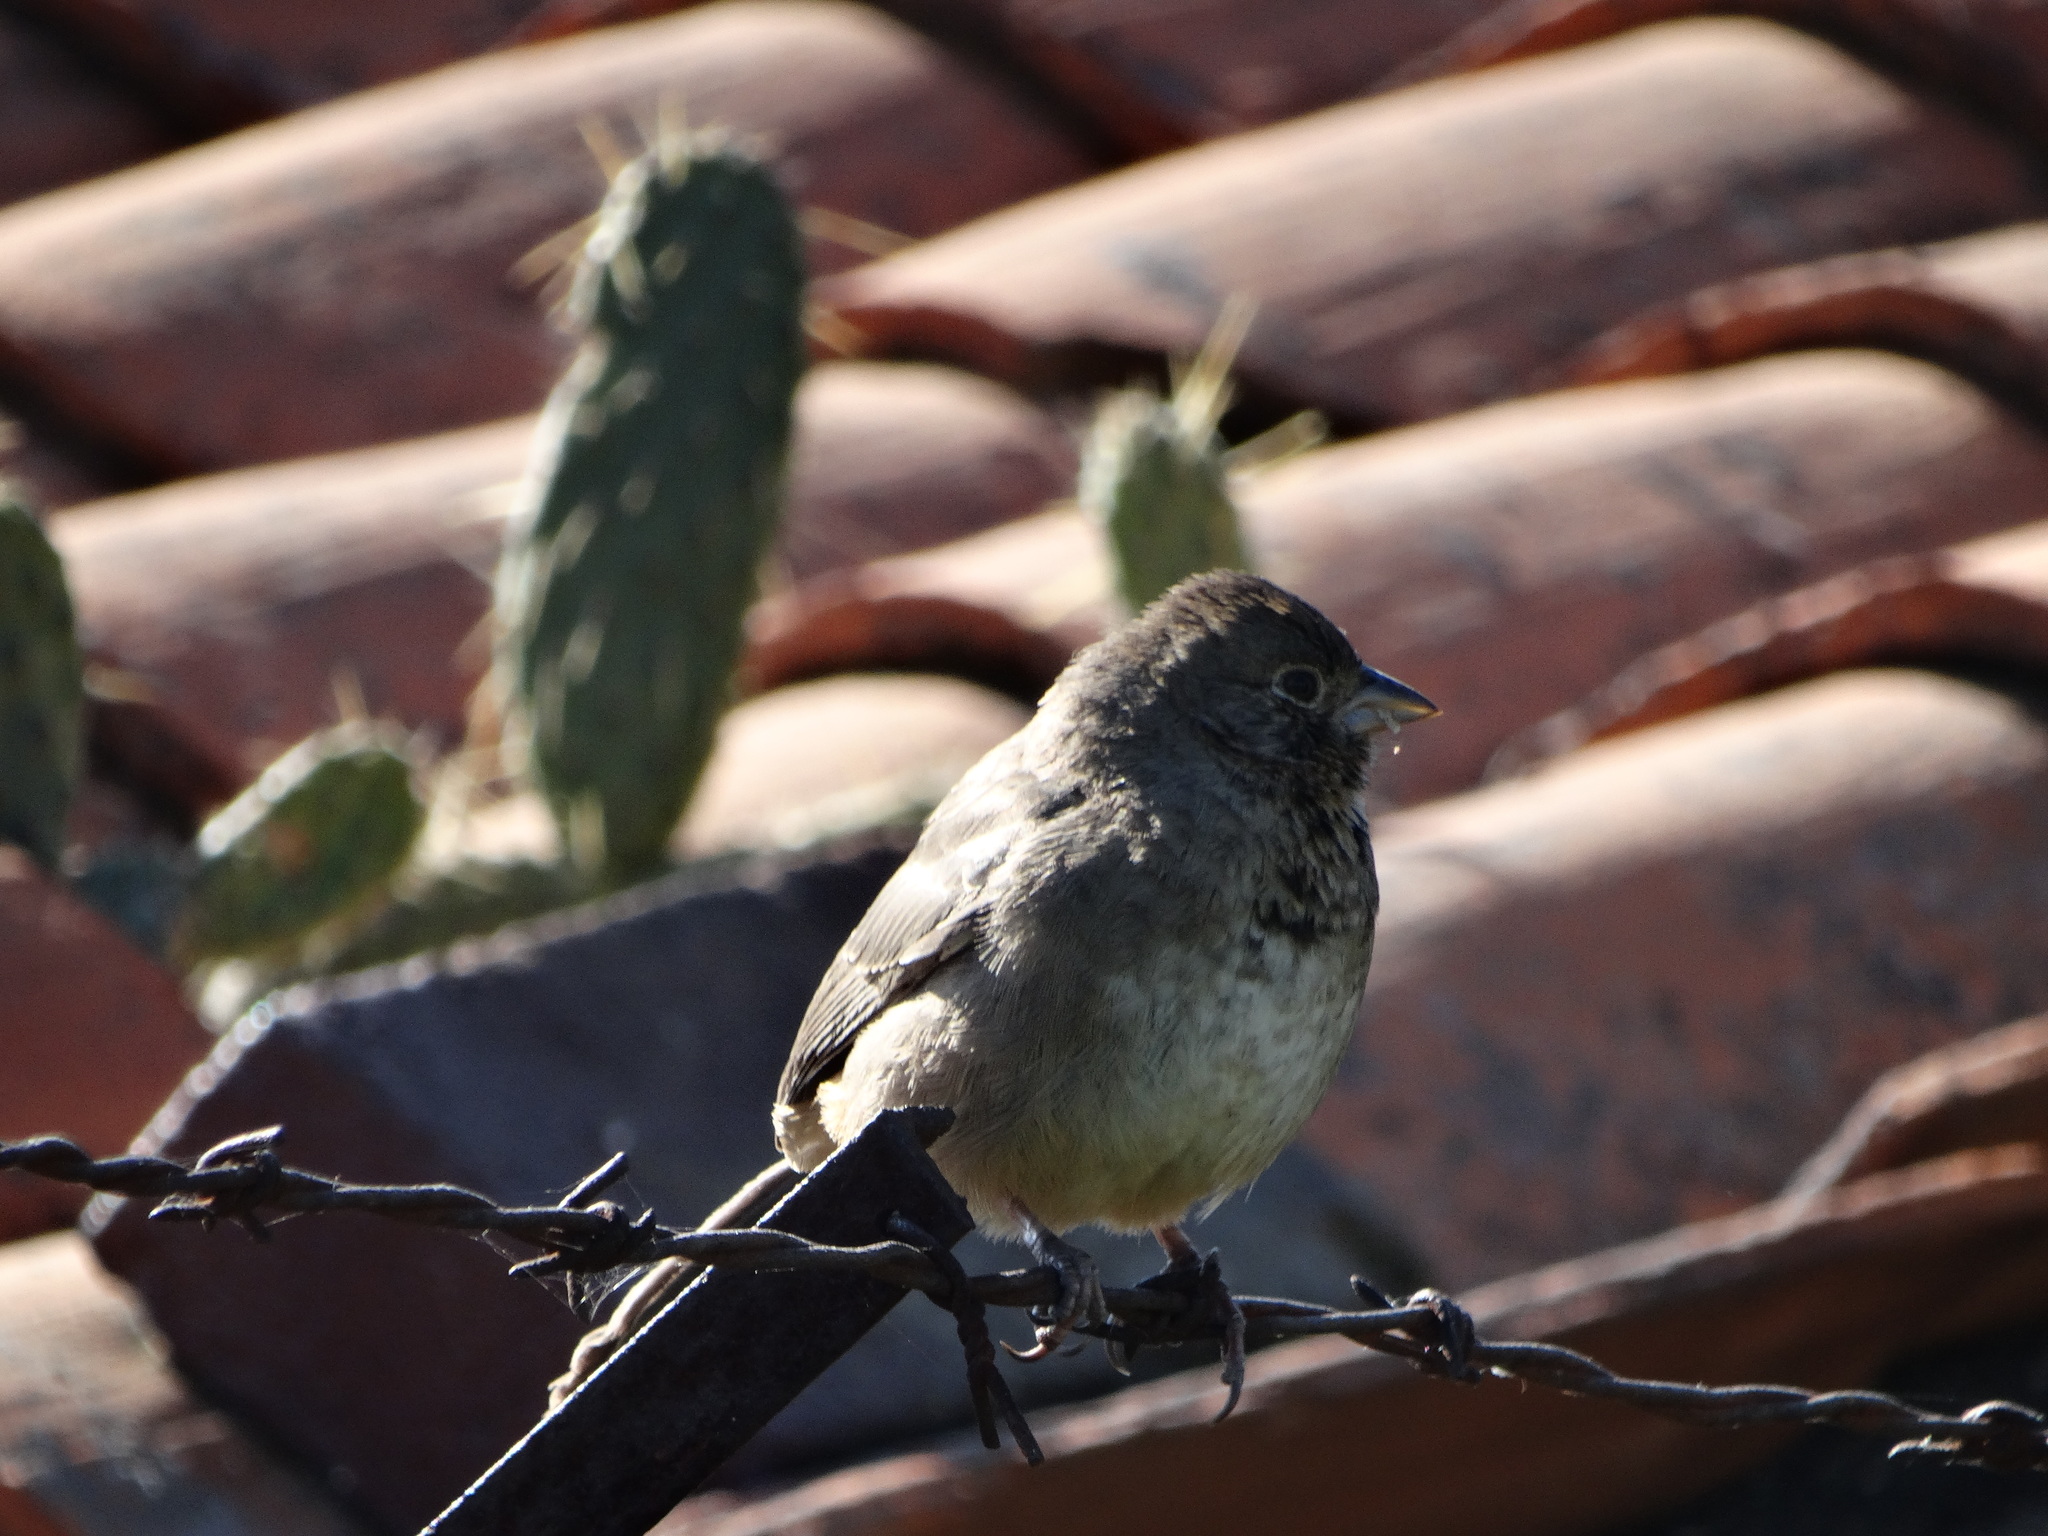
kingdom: Animalia
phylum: Chordata
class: Aves
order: Passeriformes
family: Passerellidae
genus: Melozone
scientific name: Melozone fusca
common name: Canyon towhee
